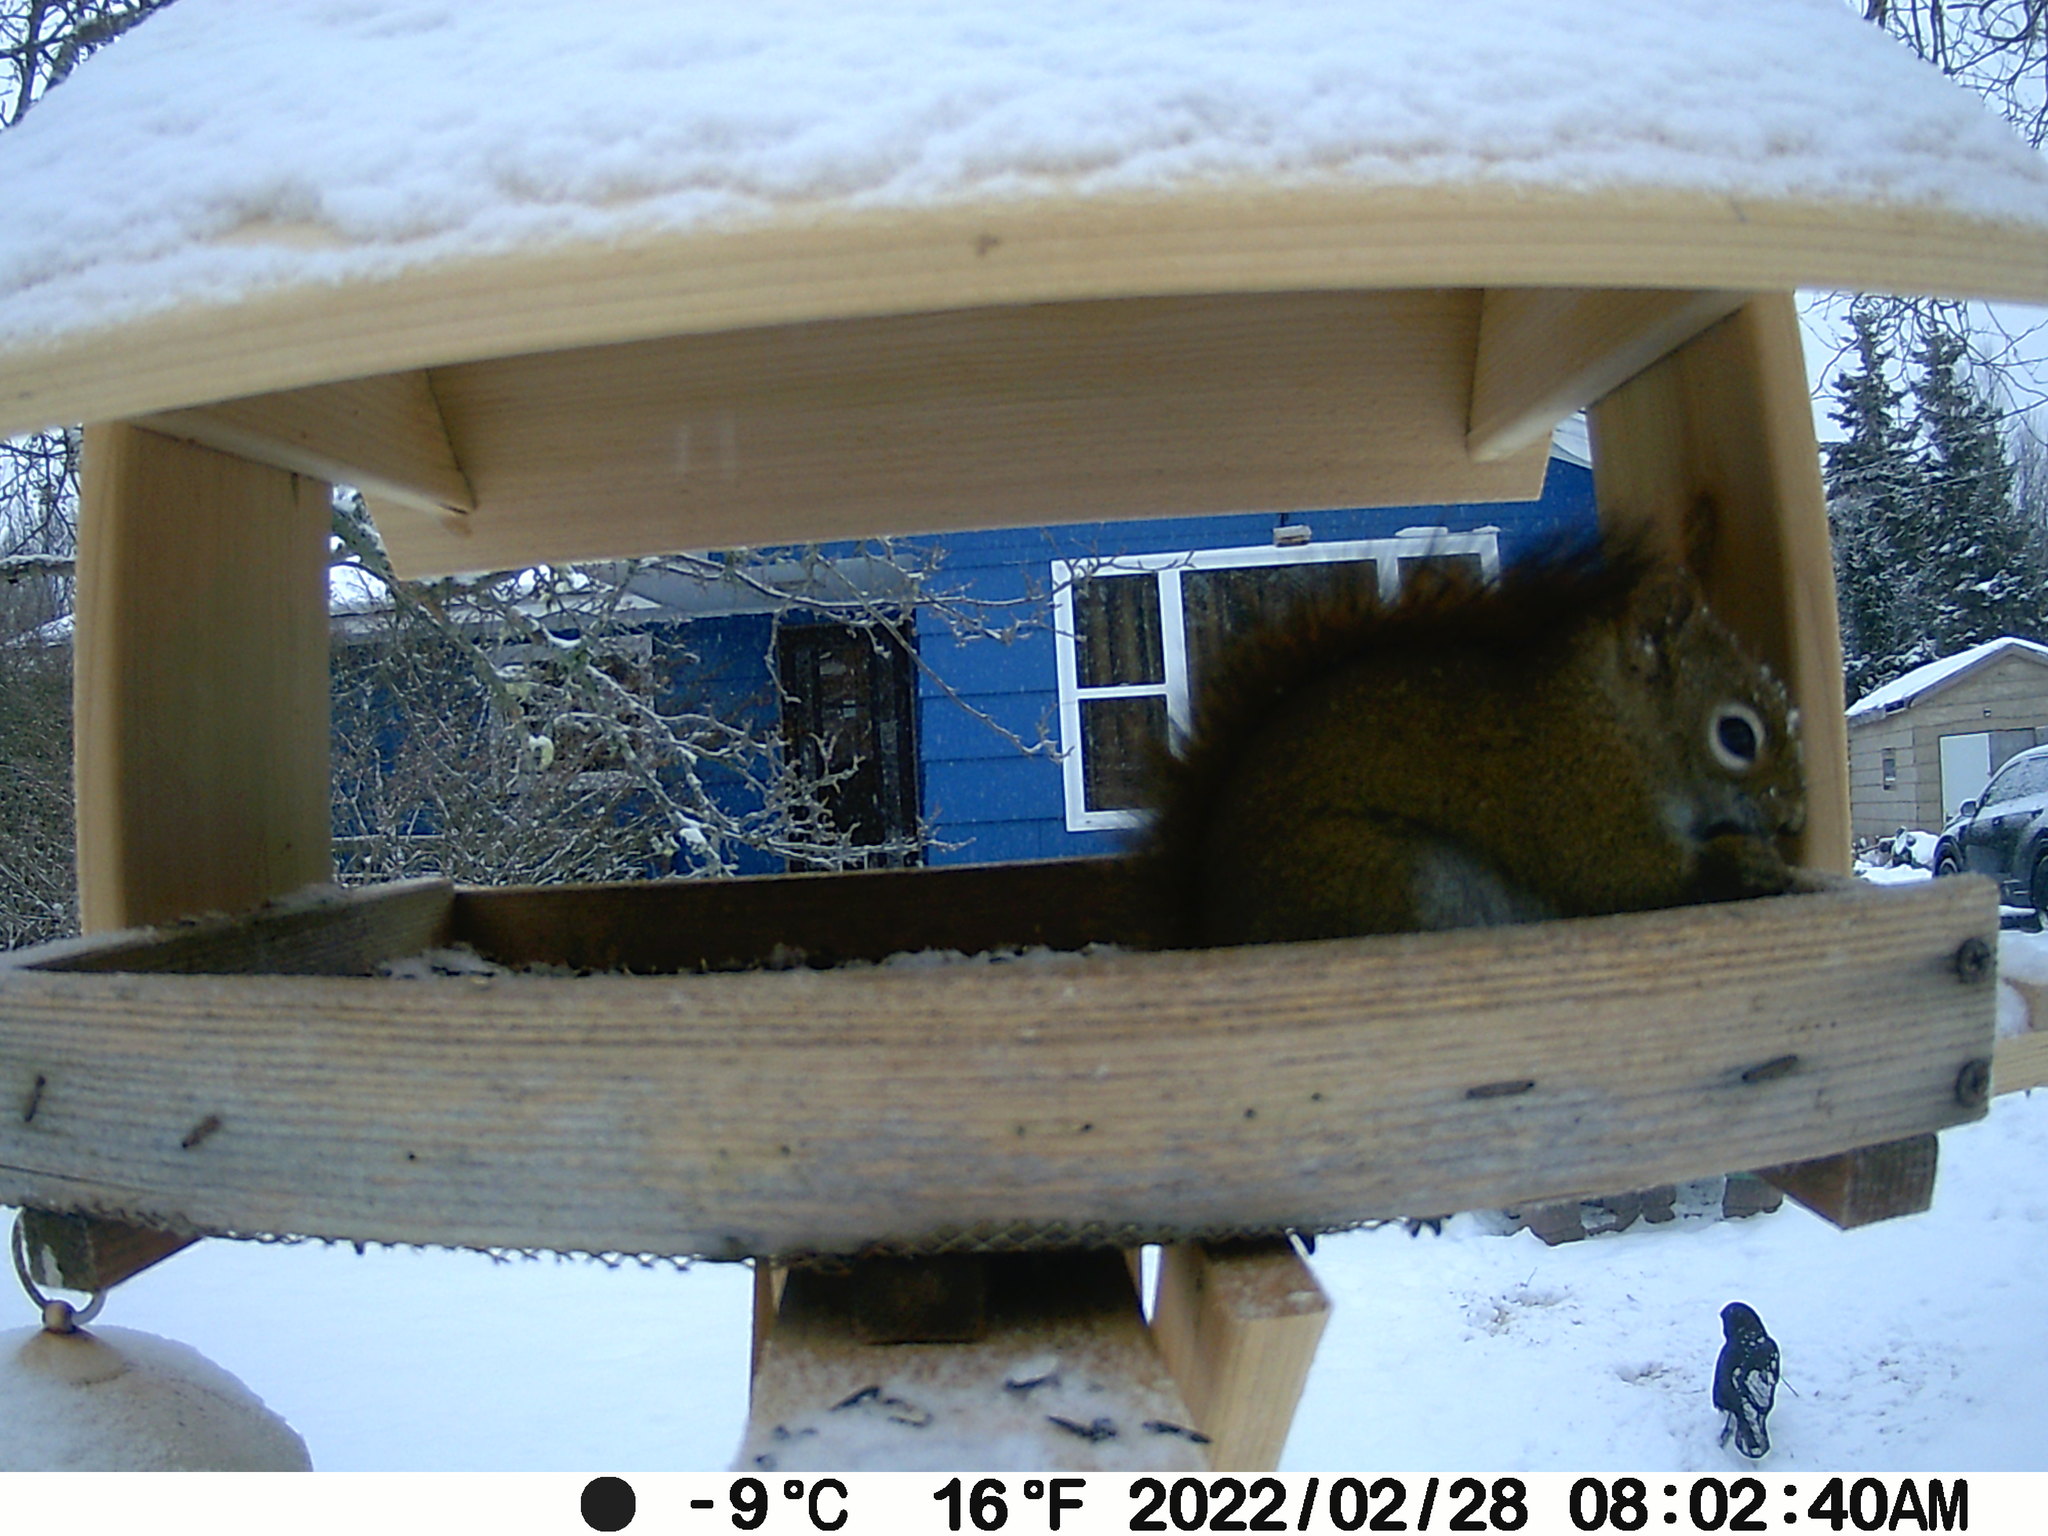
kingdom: Animalia
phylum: Chordata
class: Mammalia
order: Rodentia
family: Sciuridae
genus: Tamiasciurus
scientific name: Tamiasciurus hudsonicus
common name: Red squirrel
